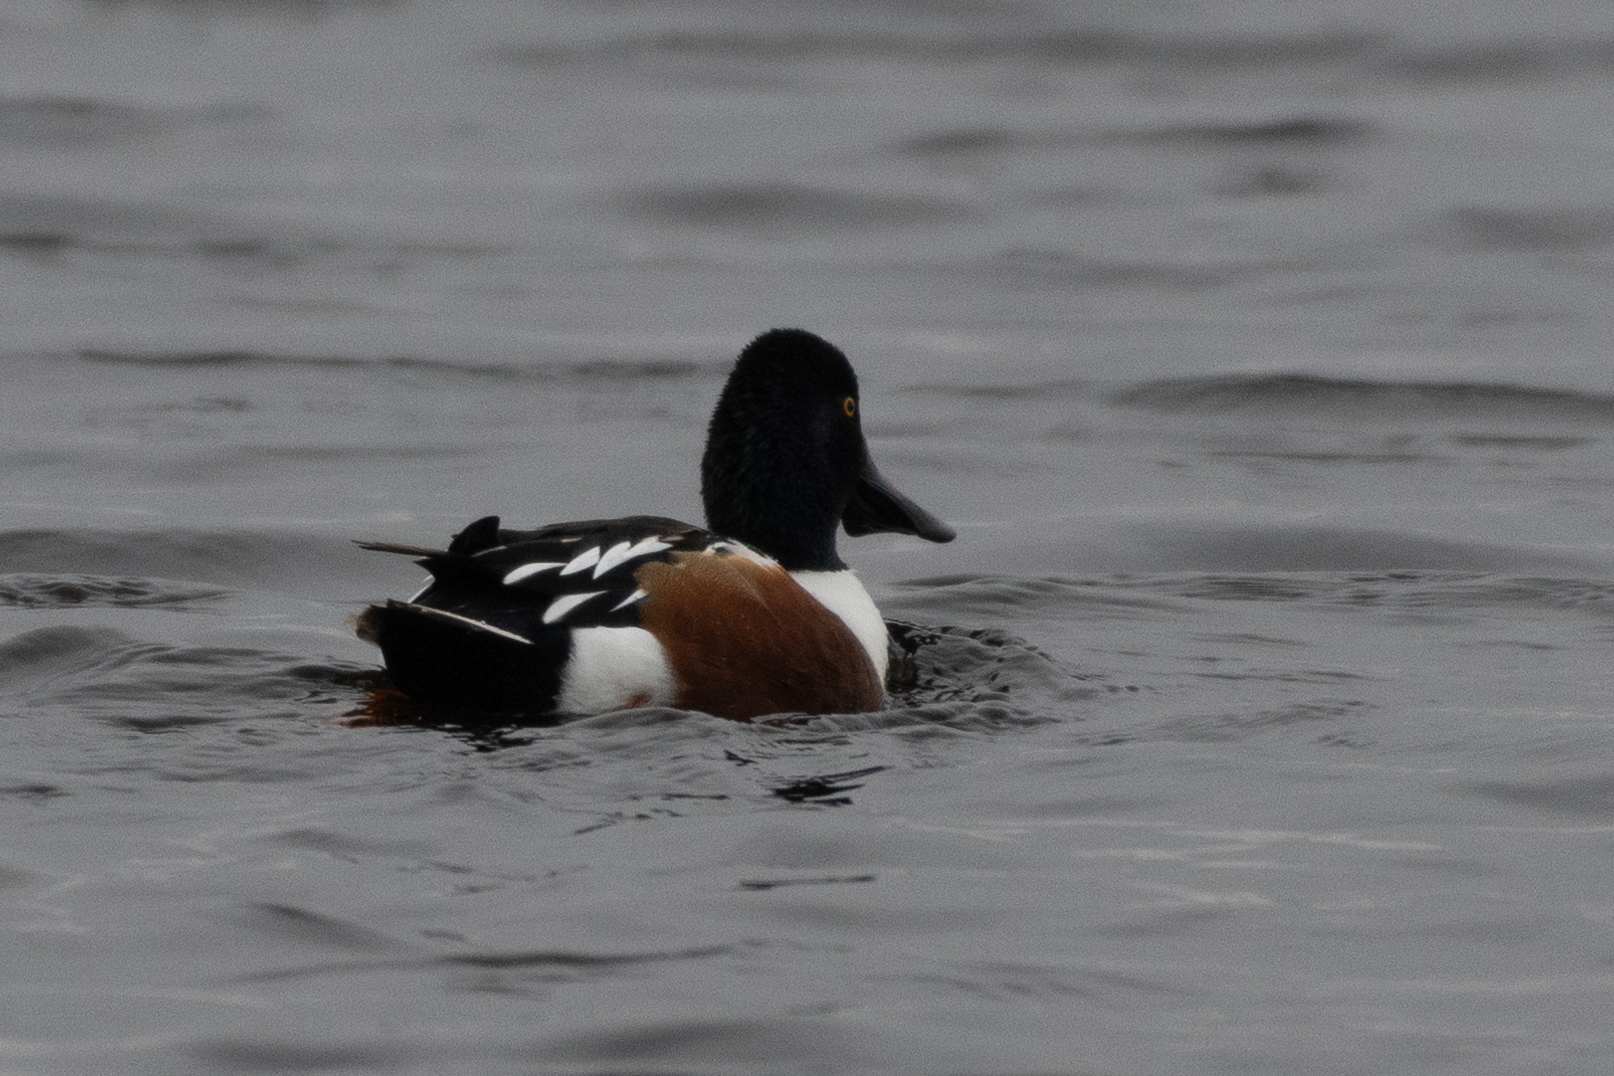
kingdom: Animalia
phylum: Chordata
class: Aves
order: Anseriformes
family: Anatidae
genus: Spatula
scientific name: Spatula clypeata
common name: Northern shoveler
